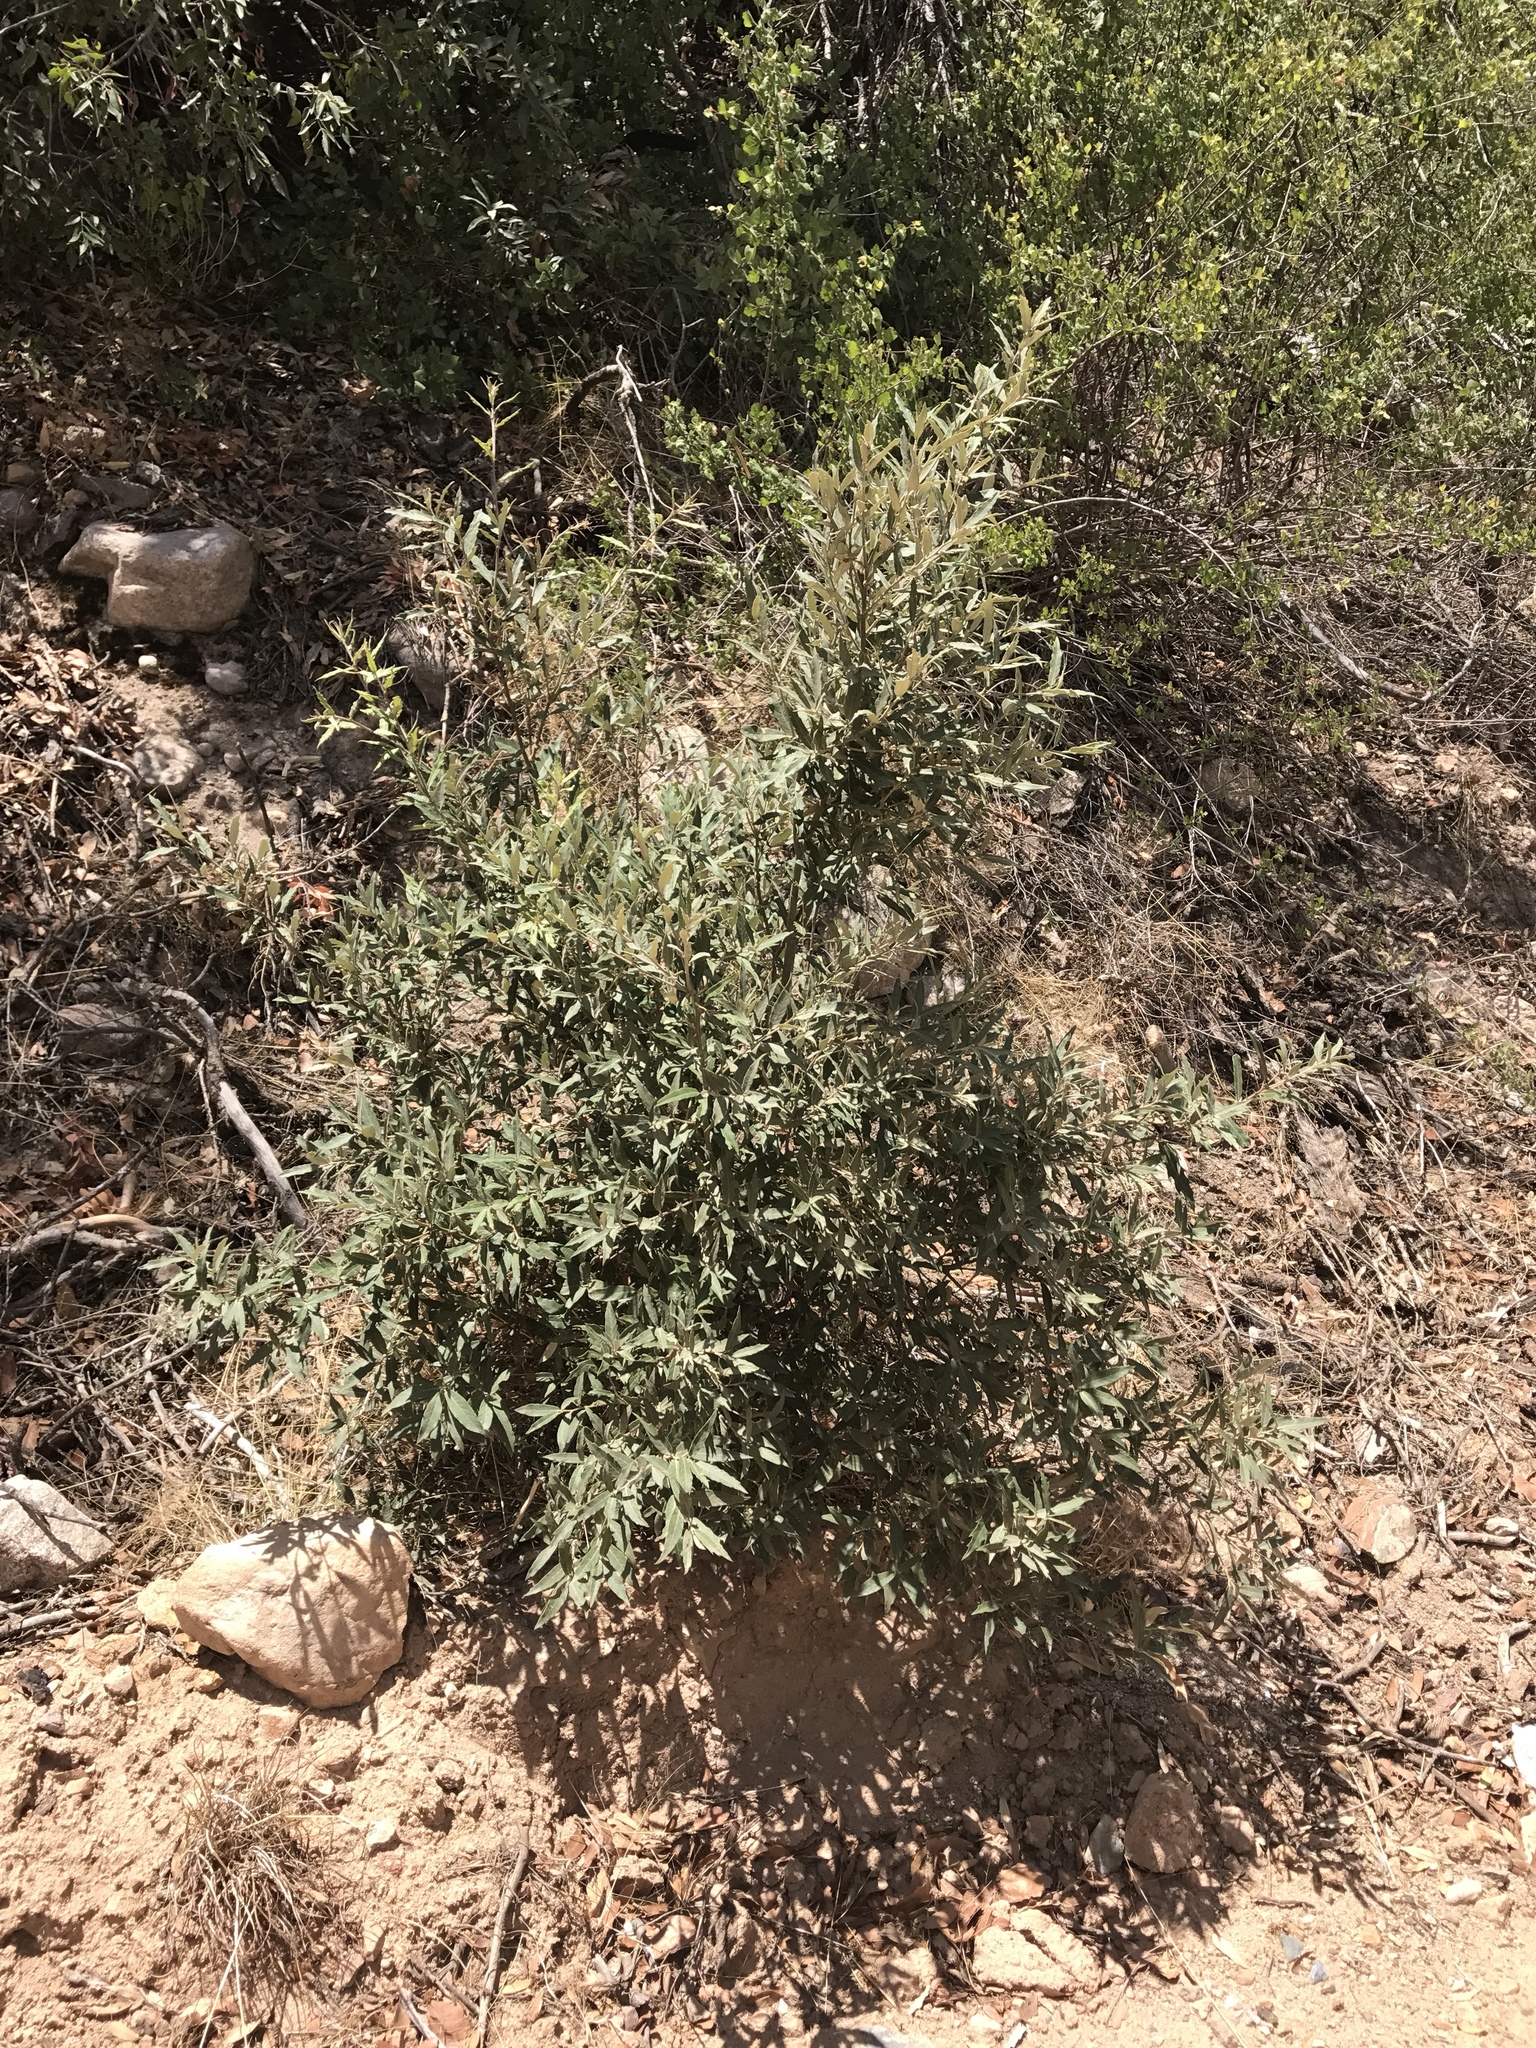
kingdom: Plantae
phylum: Tracheophyta
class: Magnoliopsida
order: Fagales
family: Fagaceae
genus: Quercus
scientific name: Quercus hypoleucoides
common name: Silverleaf oak
